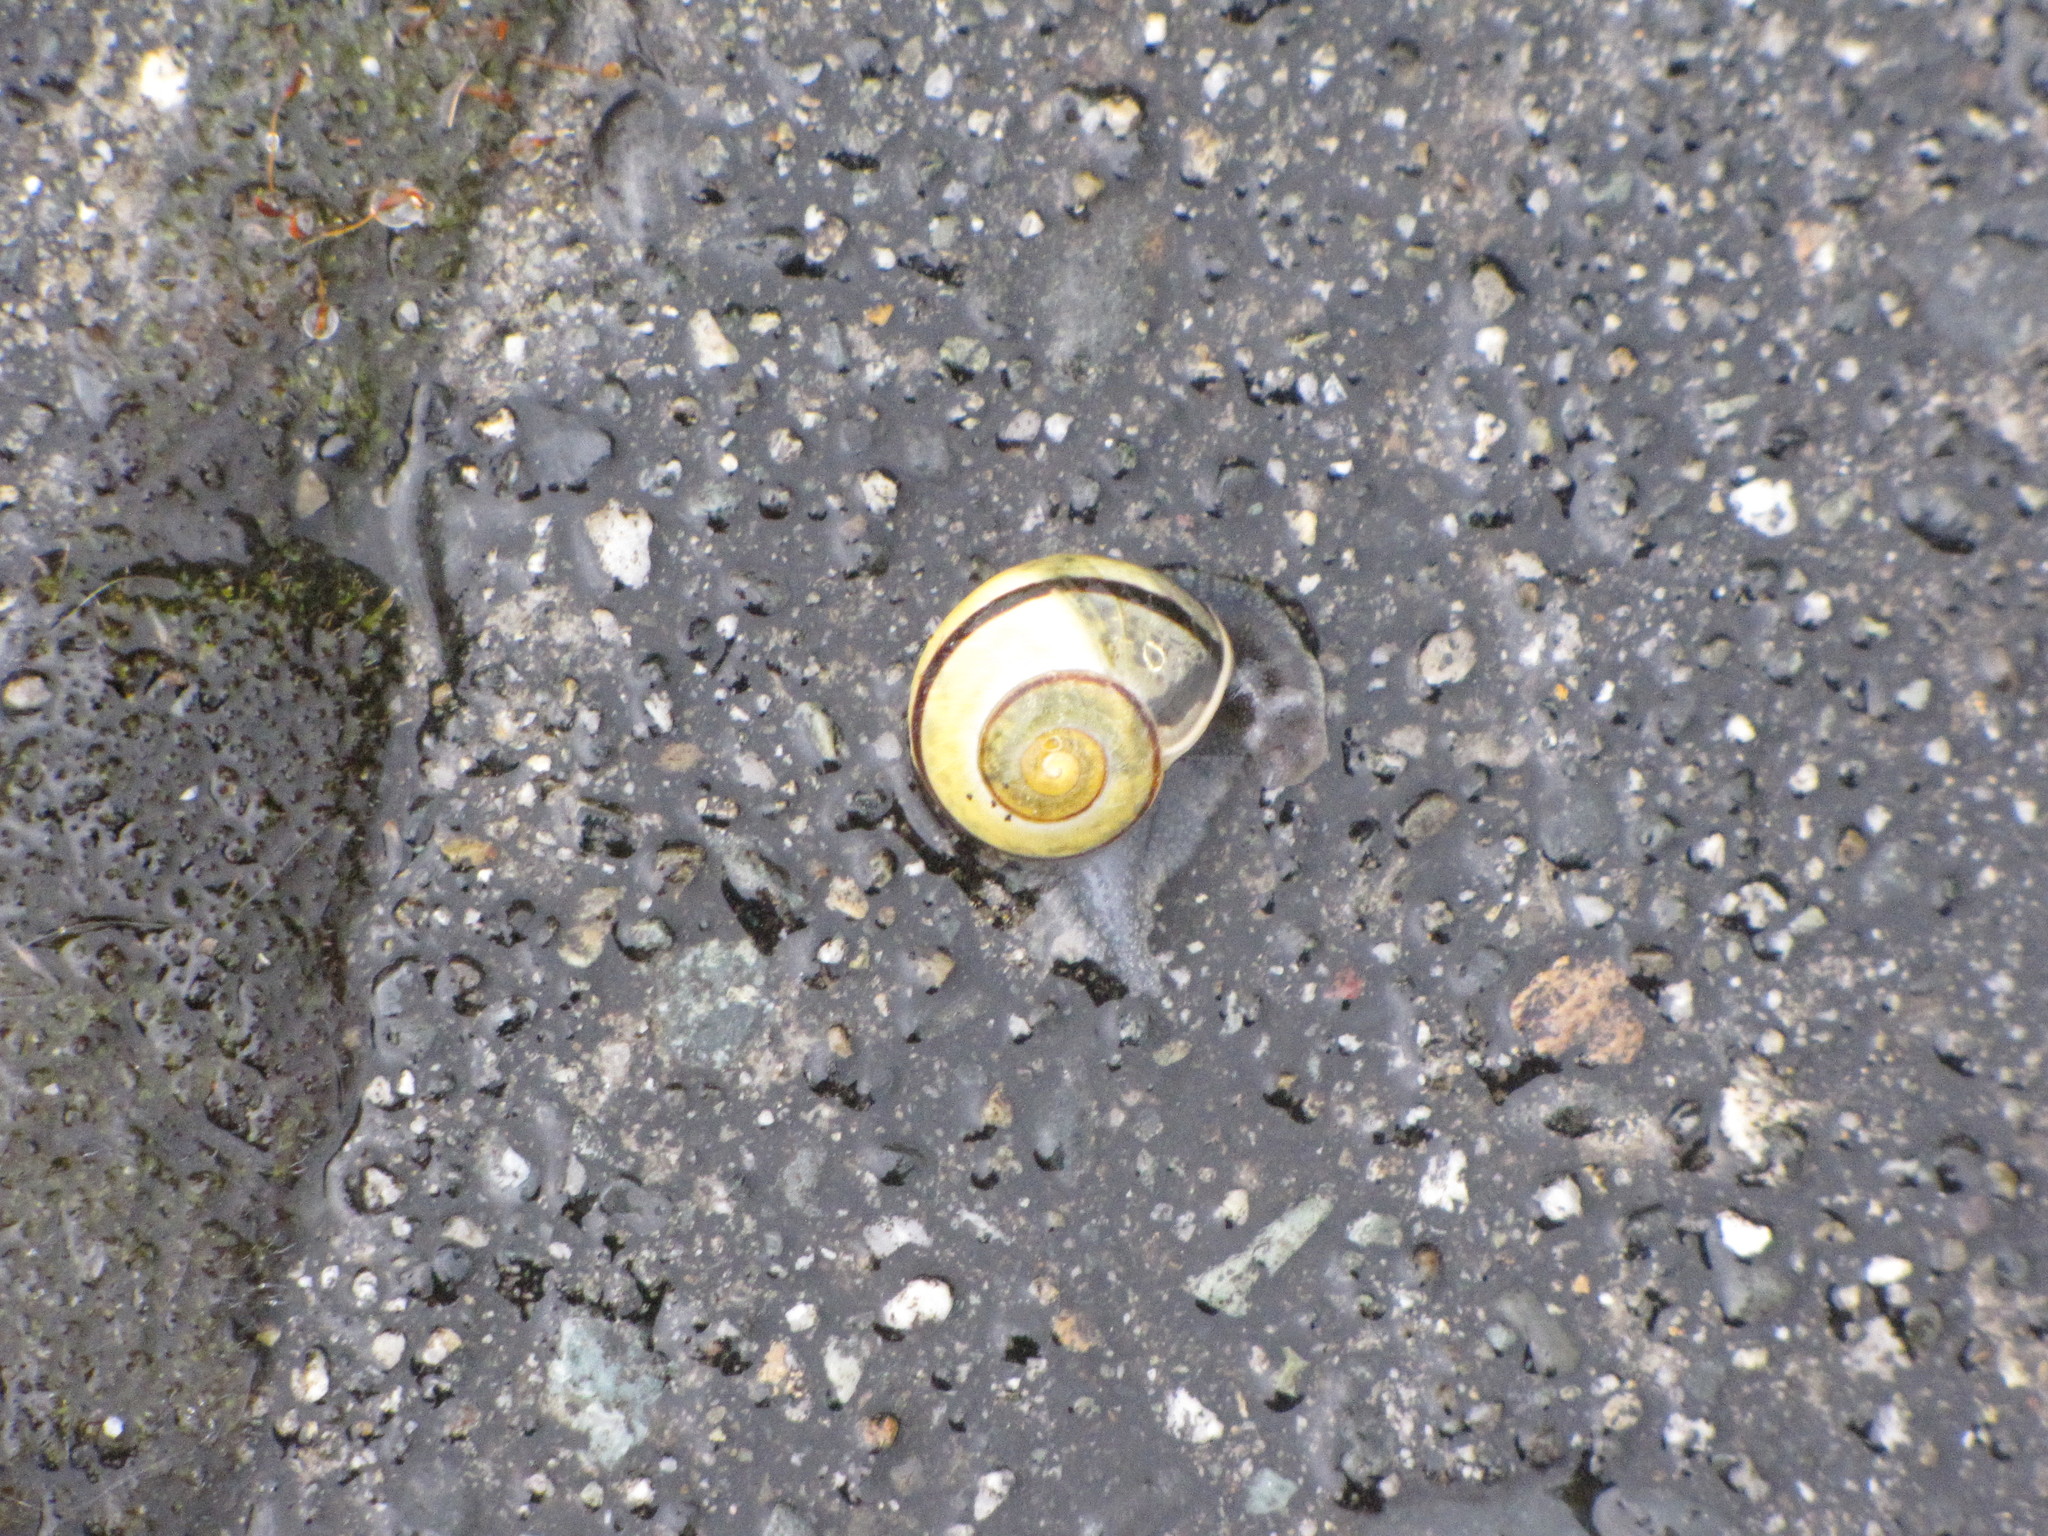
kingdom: Animalia
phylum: Mollusca
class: Gastropoda
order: Stylommatophora
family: Helicidae
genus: Cepaea
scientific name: Cepaea nemoralis
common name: Grovesnail
